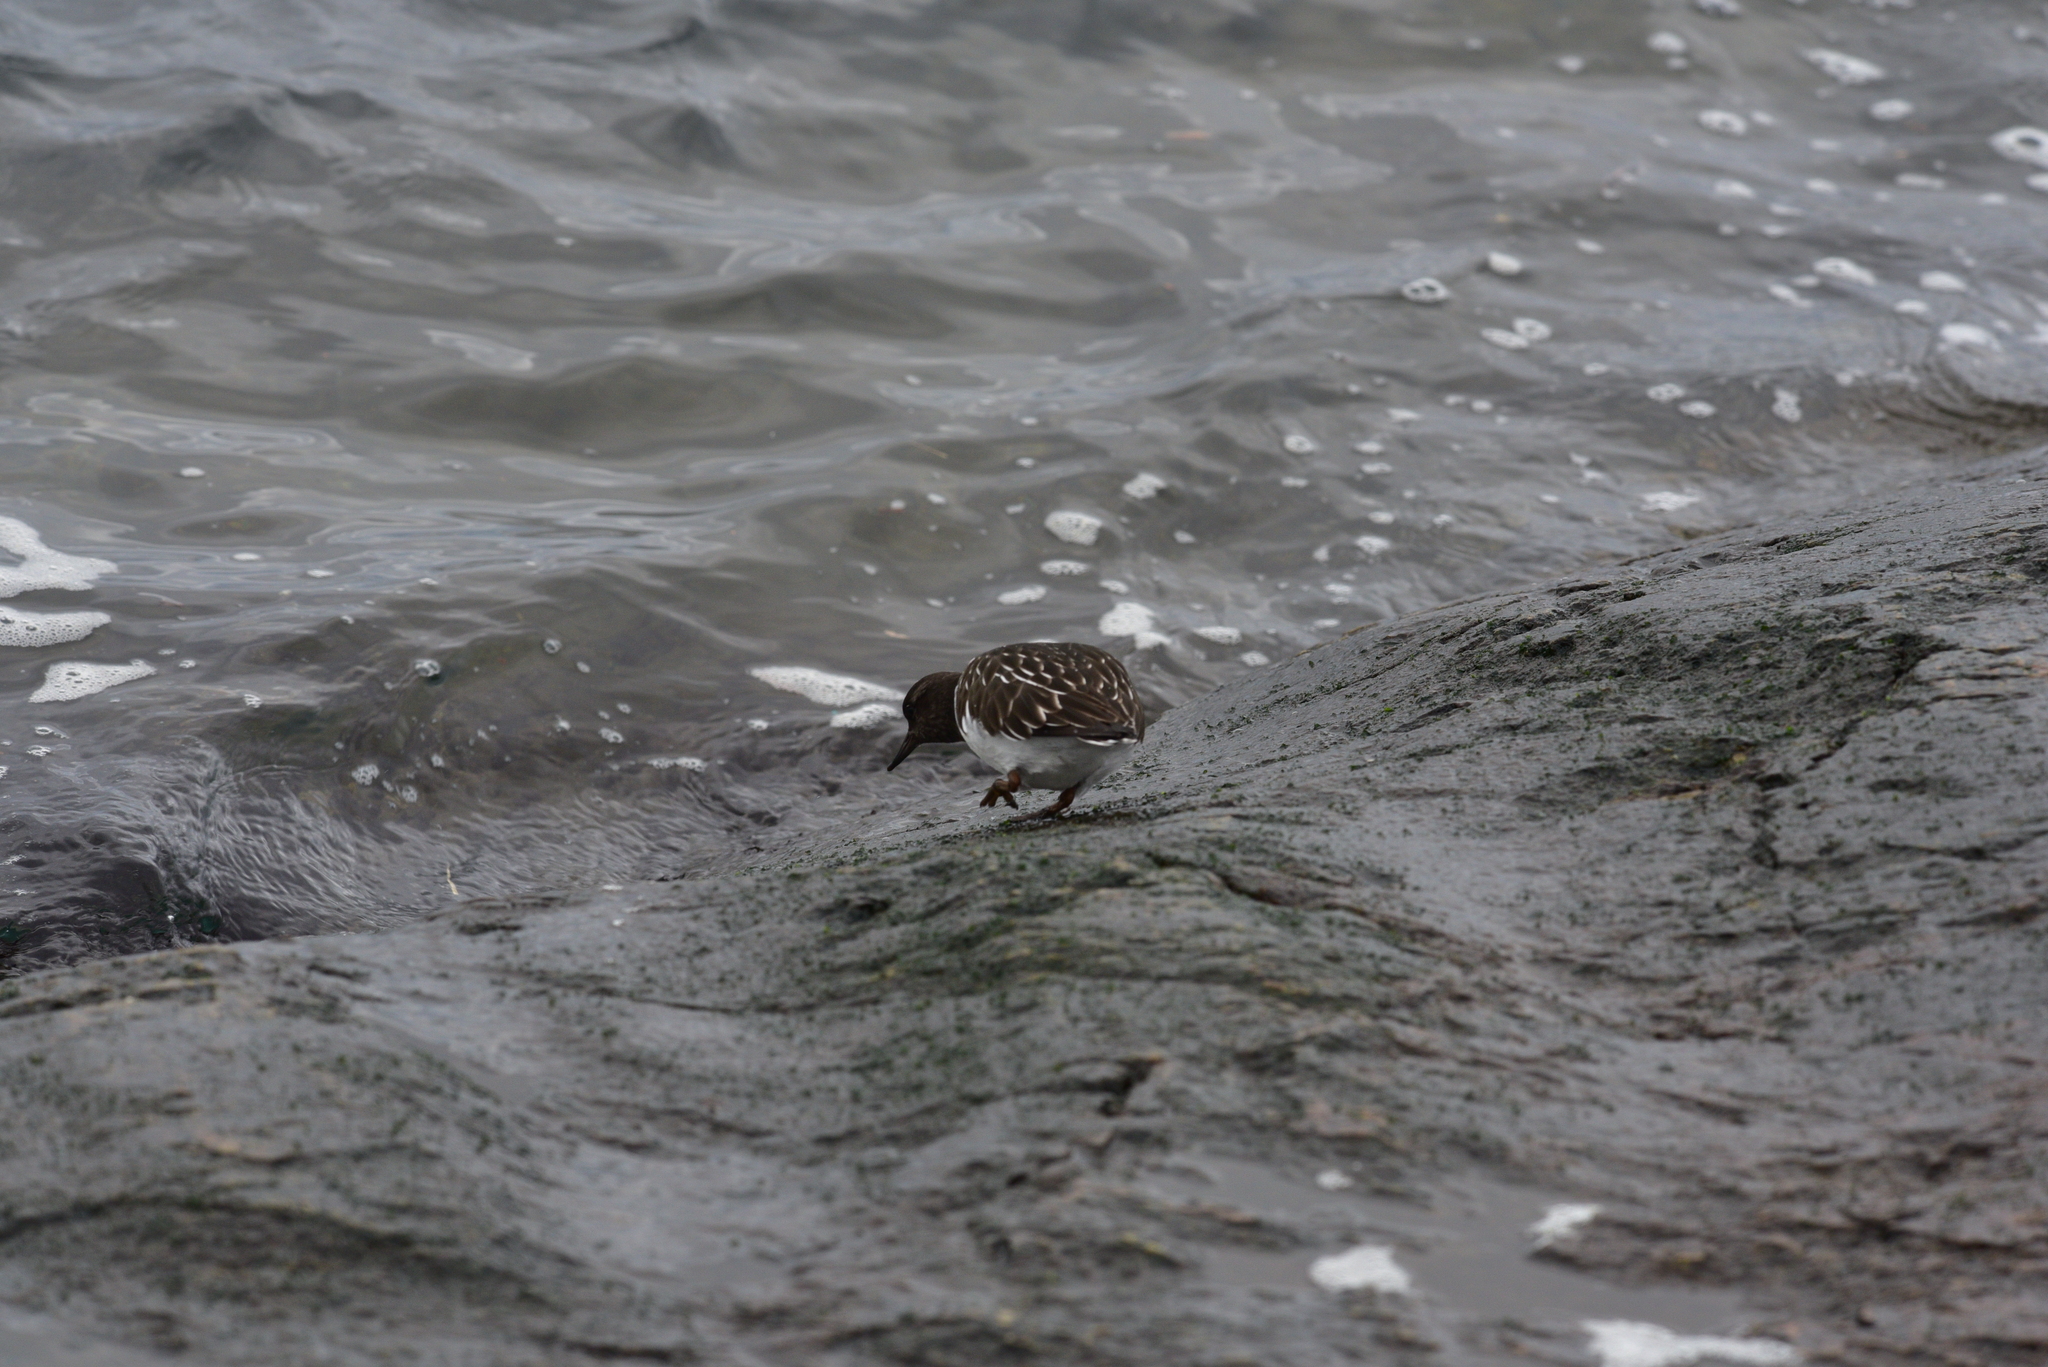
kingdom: Animalia
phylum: Chordata
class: Aves
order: Charadriiformes
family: Scolopacidae
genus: Arenaria
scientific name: Arenaria melanocephala
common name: Black turnstone
